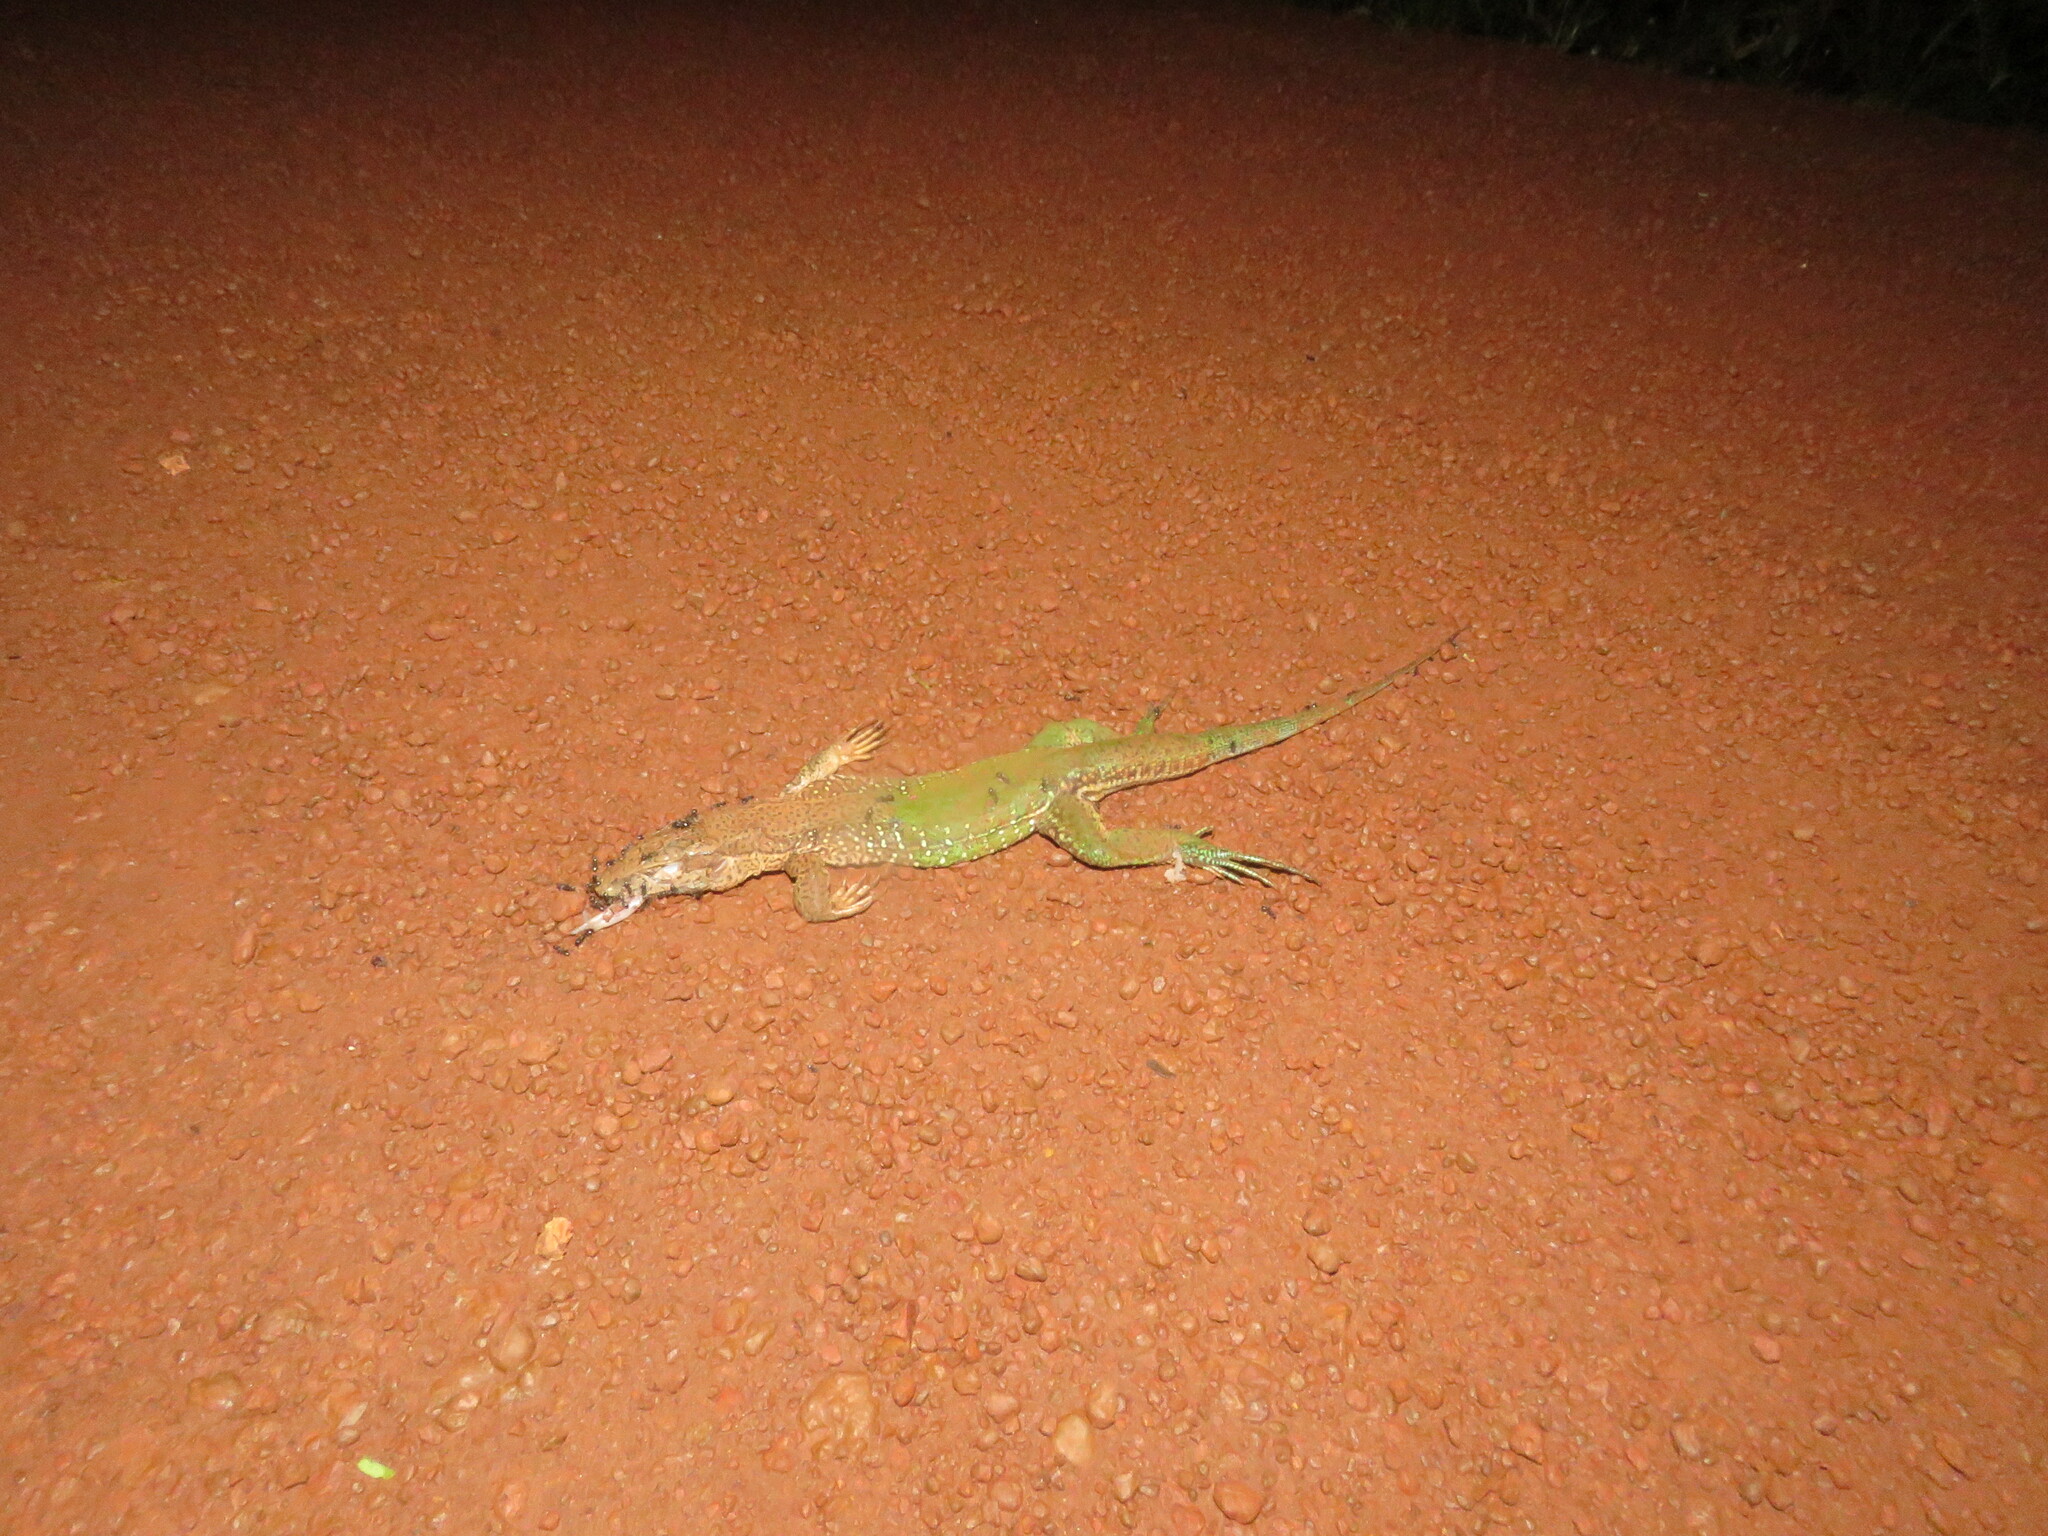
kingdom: Animalia
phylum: Chordata
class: Squamata
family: Teiidae
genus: Ameiva
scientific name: Ameiva ameiva
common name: Giant ameiva
